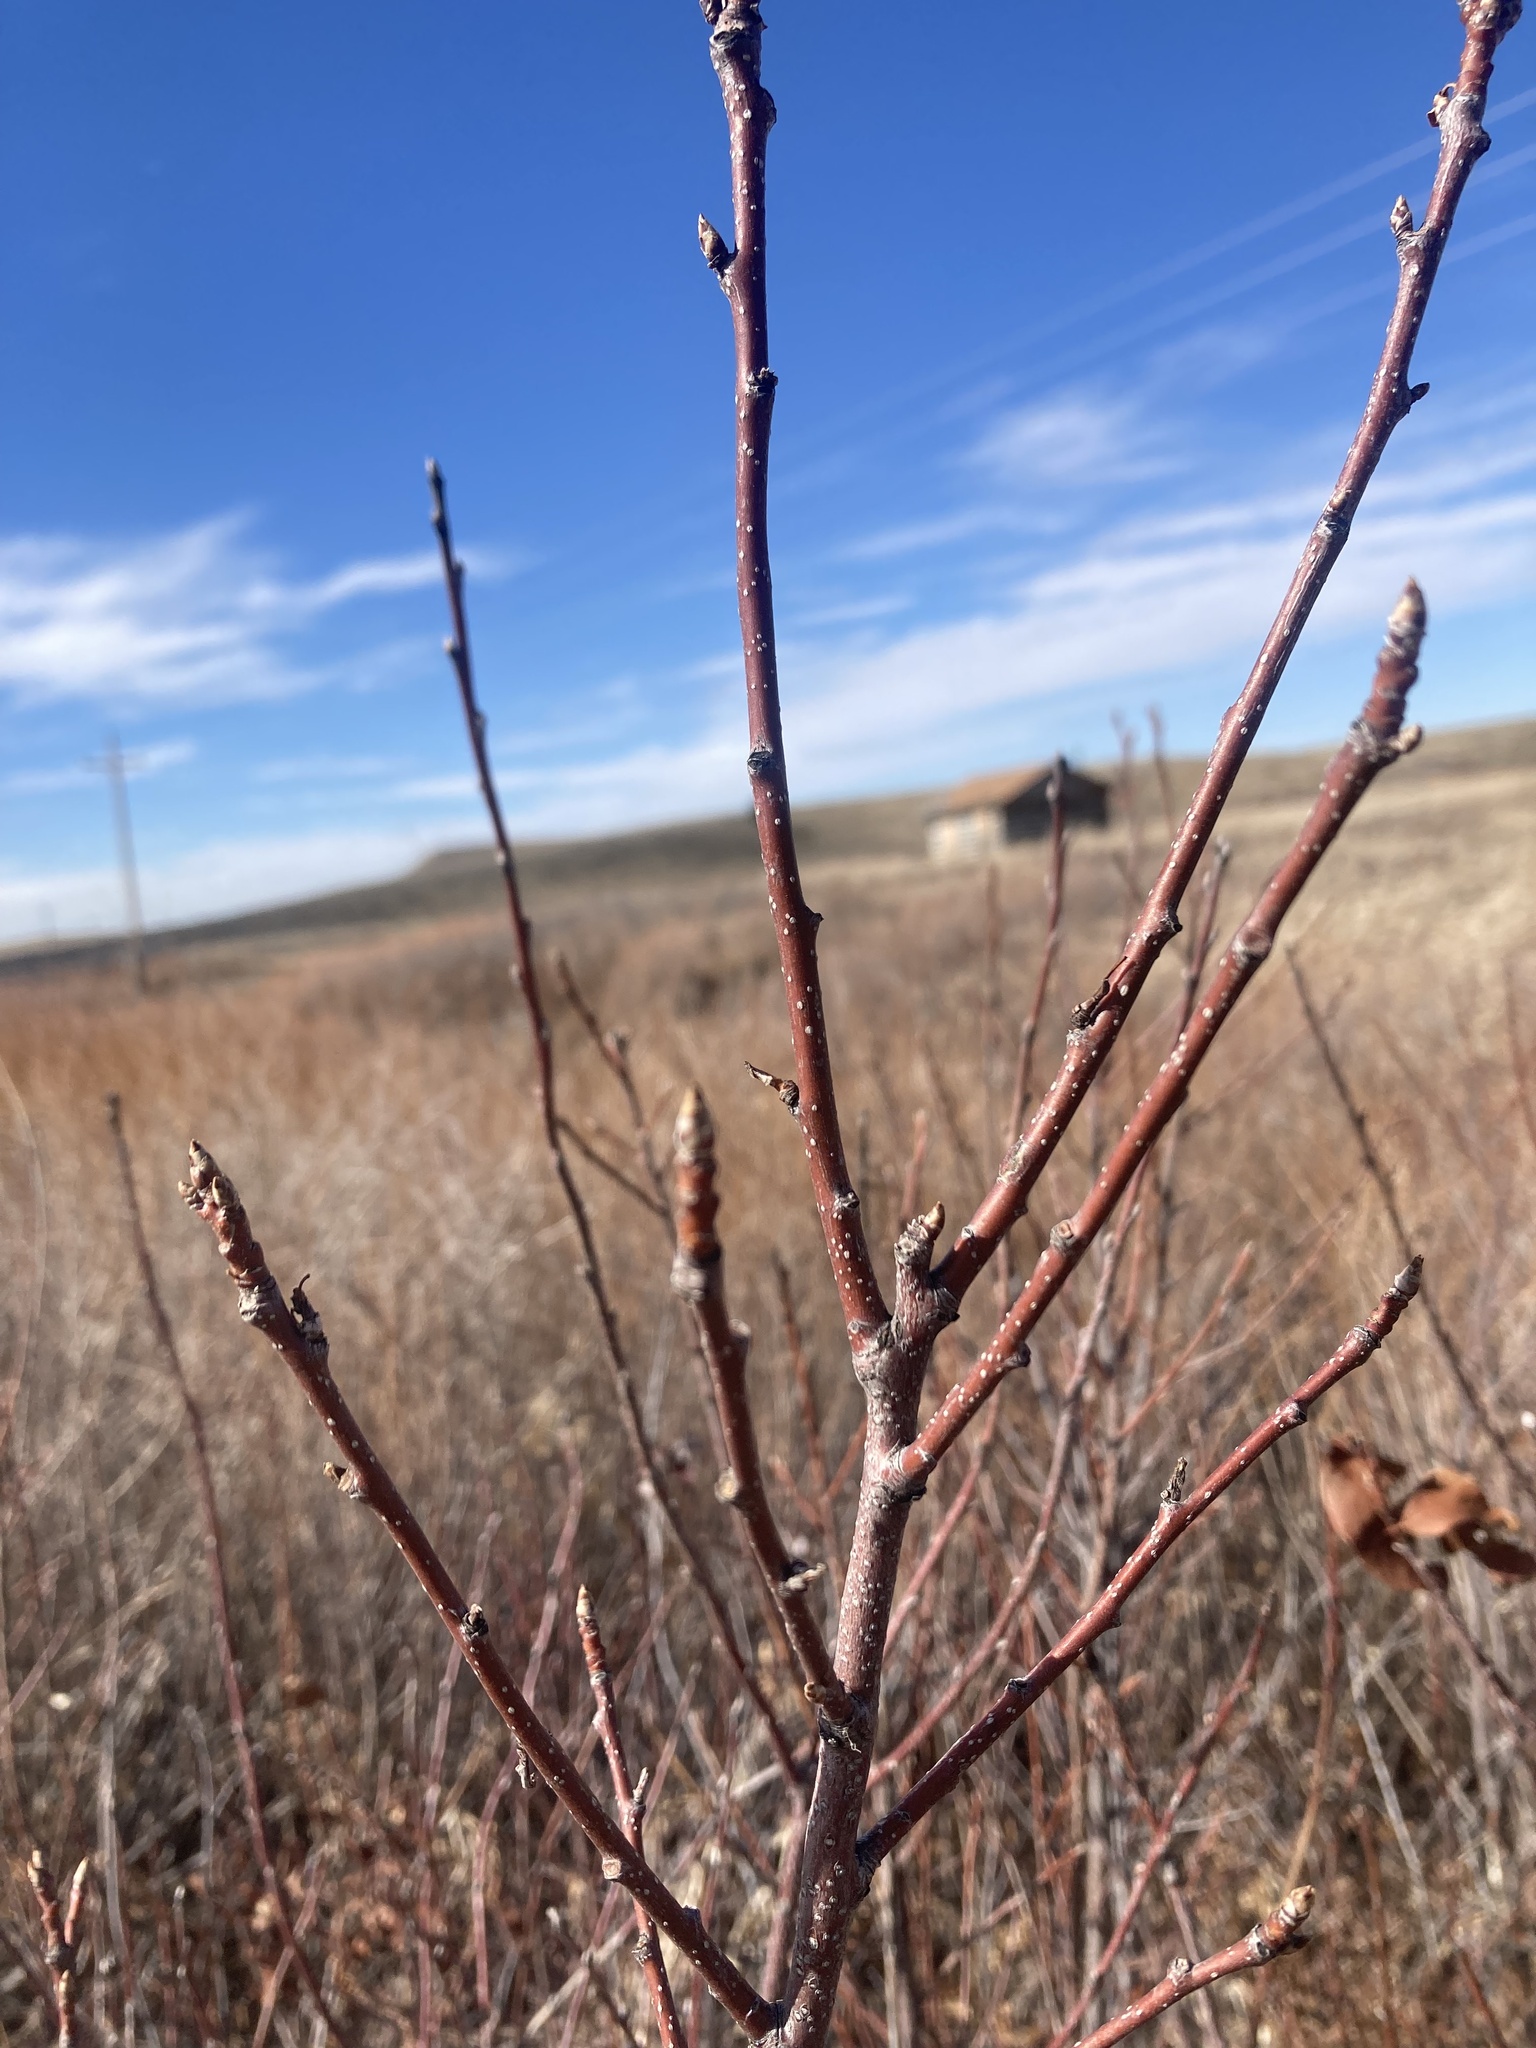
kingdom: Plantae
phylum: Tracheophyta
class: Magnoliopsida
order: Rosales
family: Rosaceae
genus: Prunus
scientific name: Prunus virginiana
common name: Chokecherry
